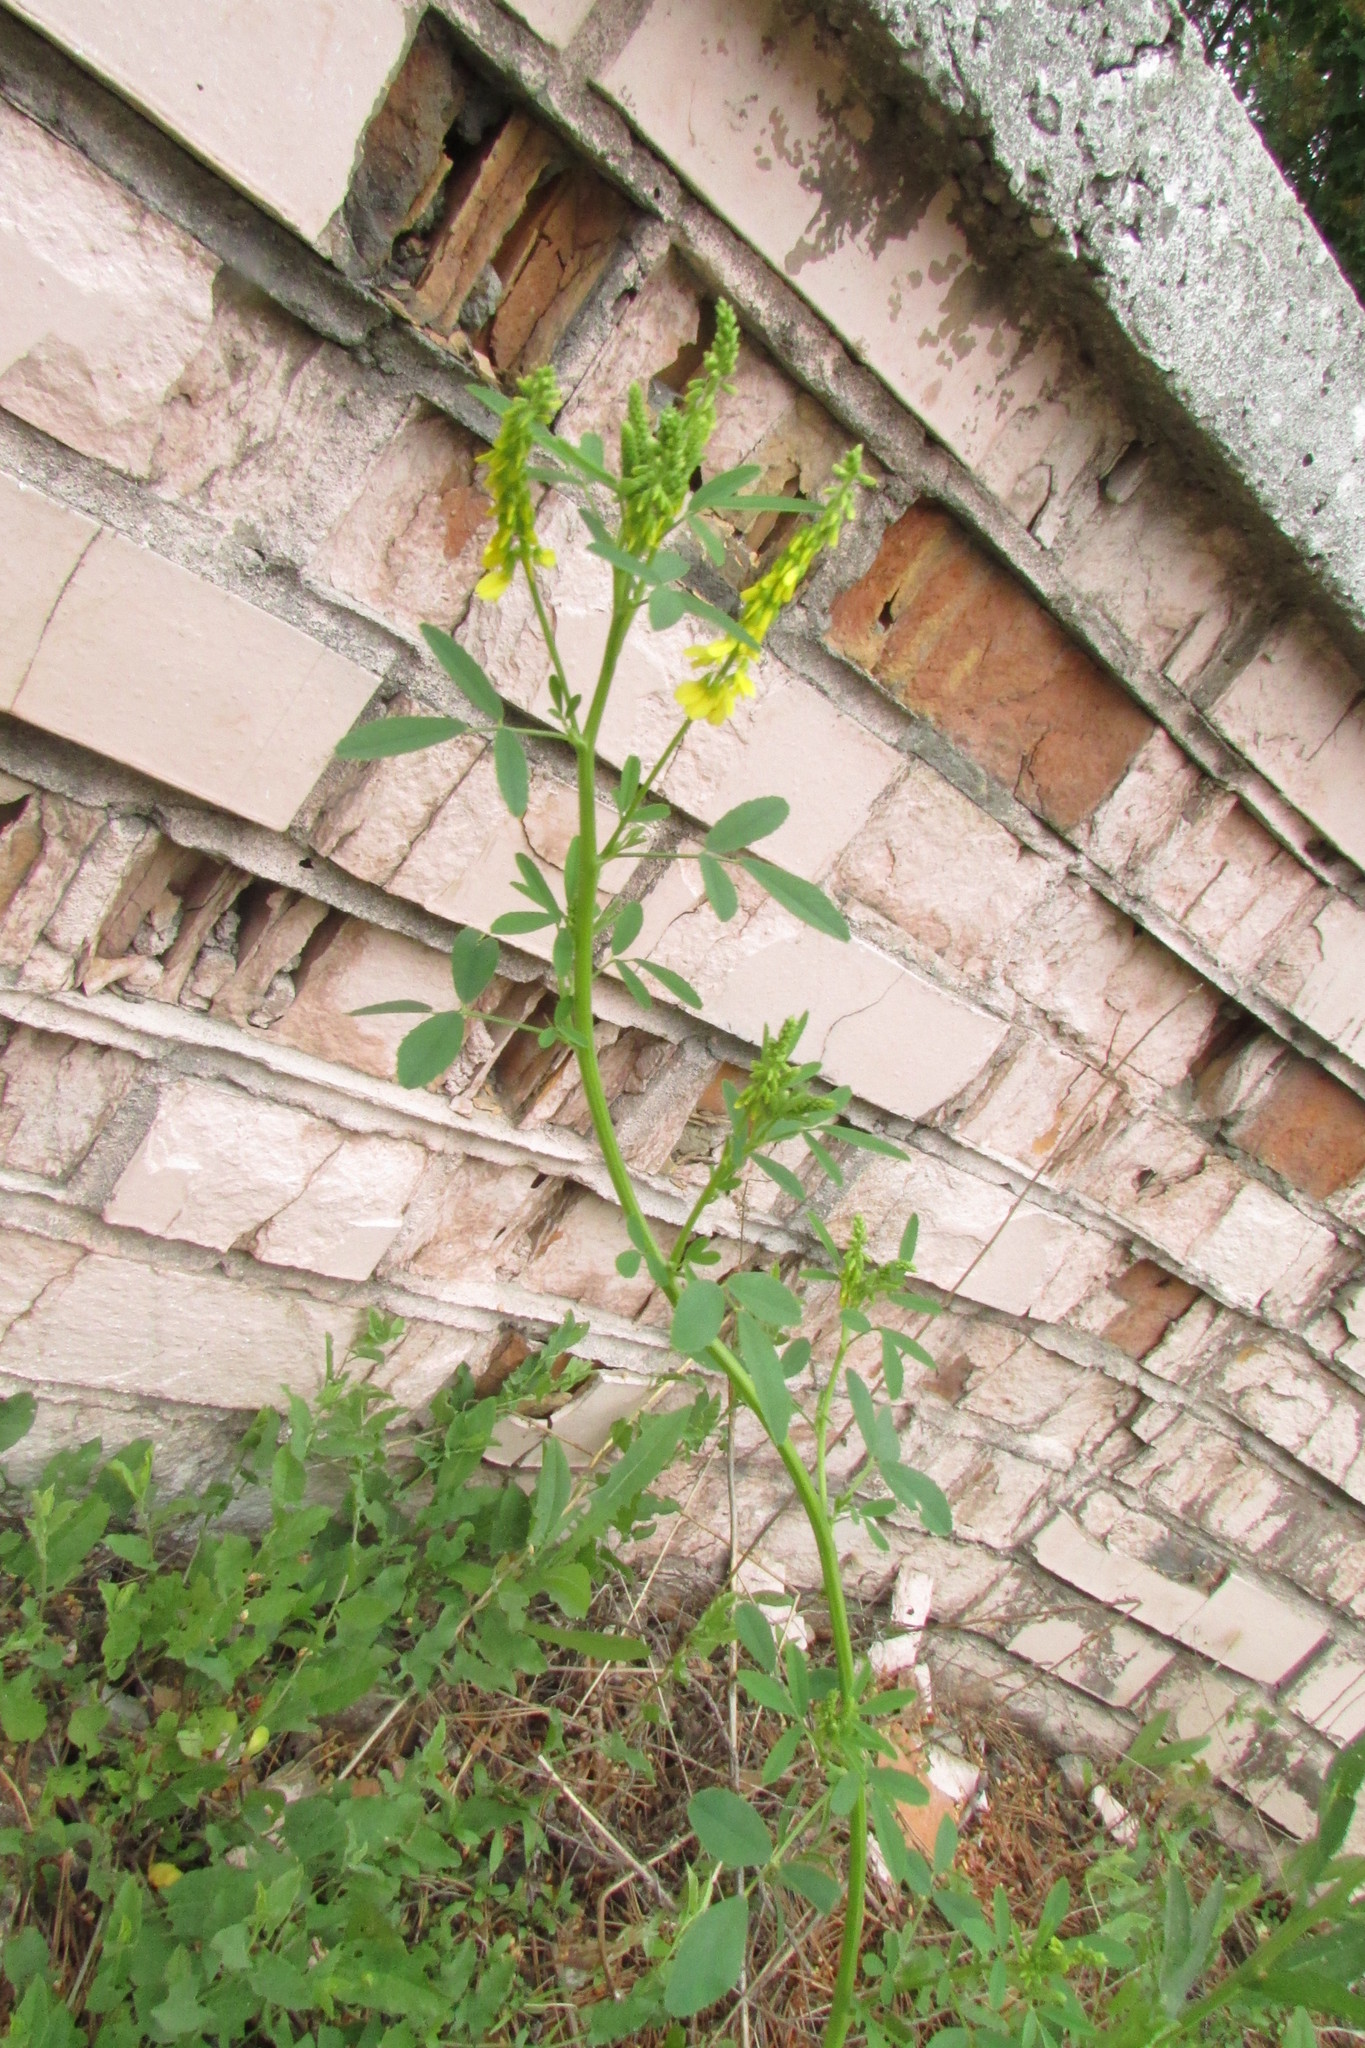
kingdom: Plantae
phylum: Tracheophyta
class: Magnoliopsida
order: Fabales
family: Fabaceae
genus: Melilotus
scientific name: Melilotus officinalis
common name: Sweetclover
